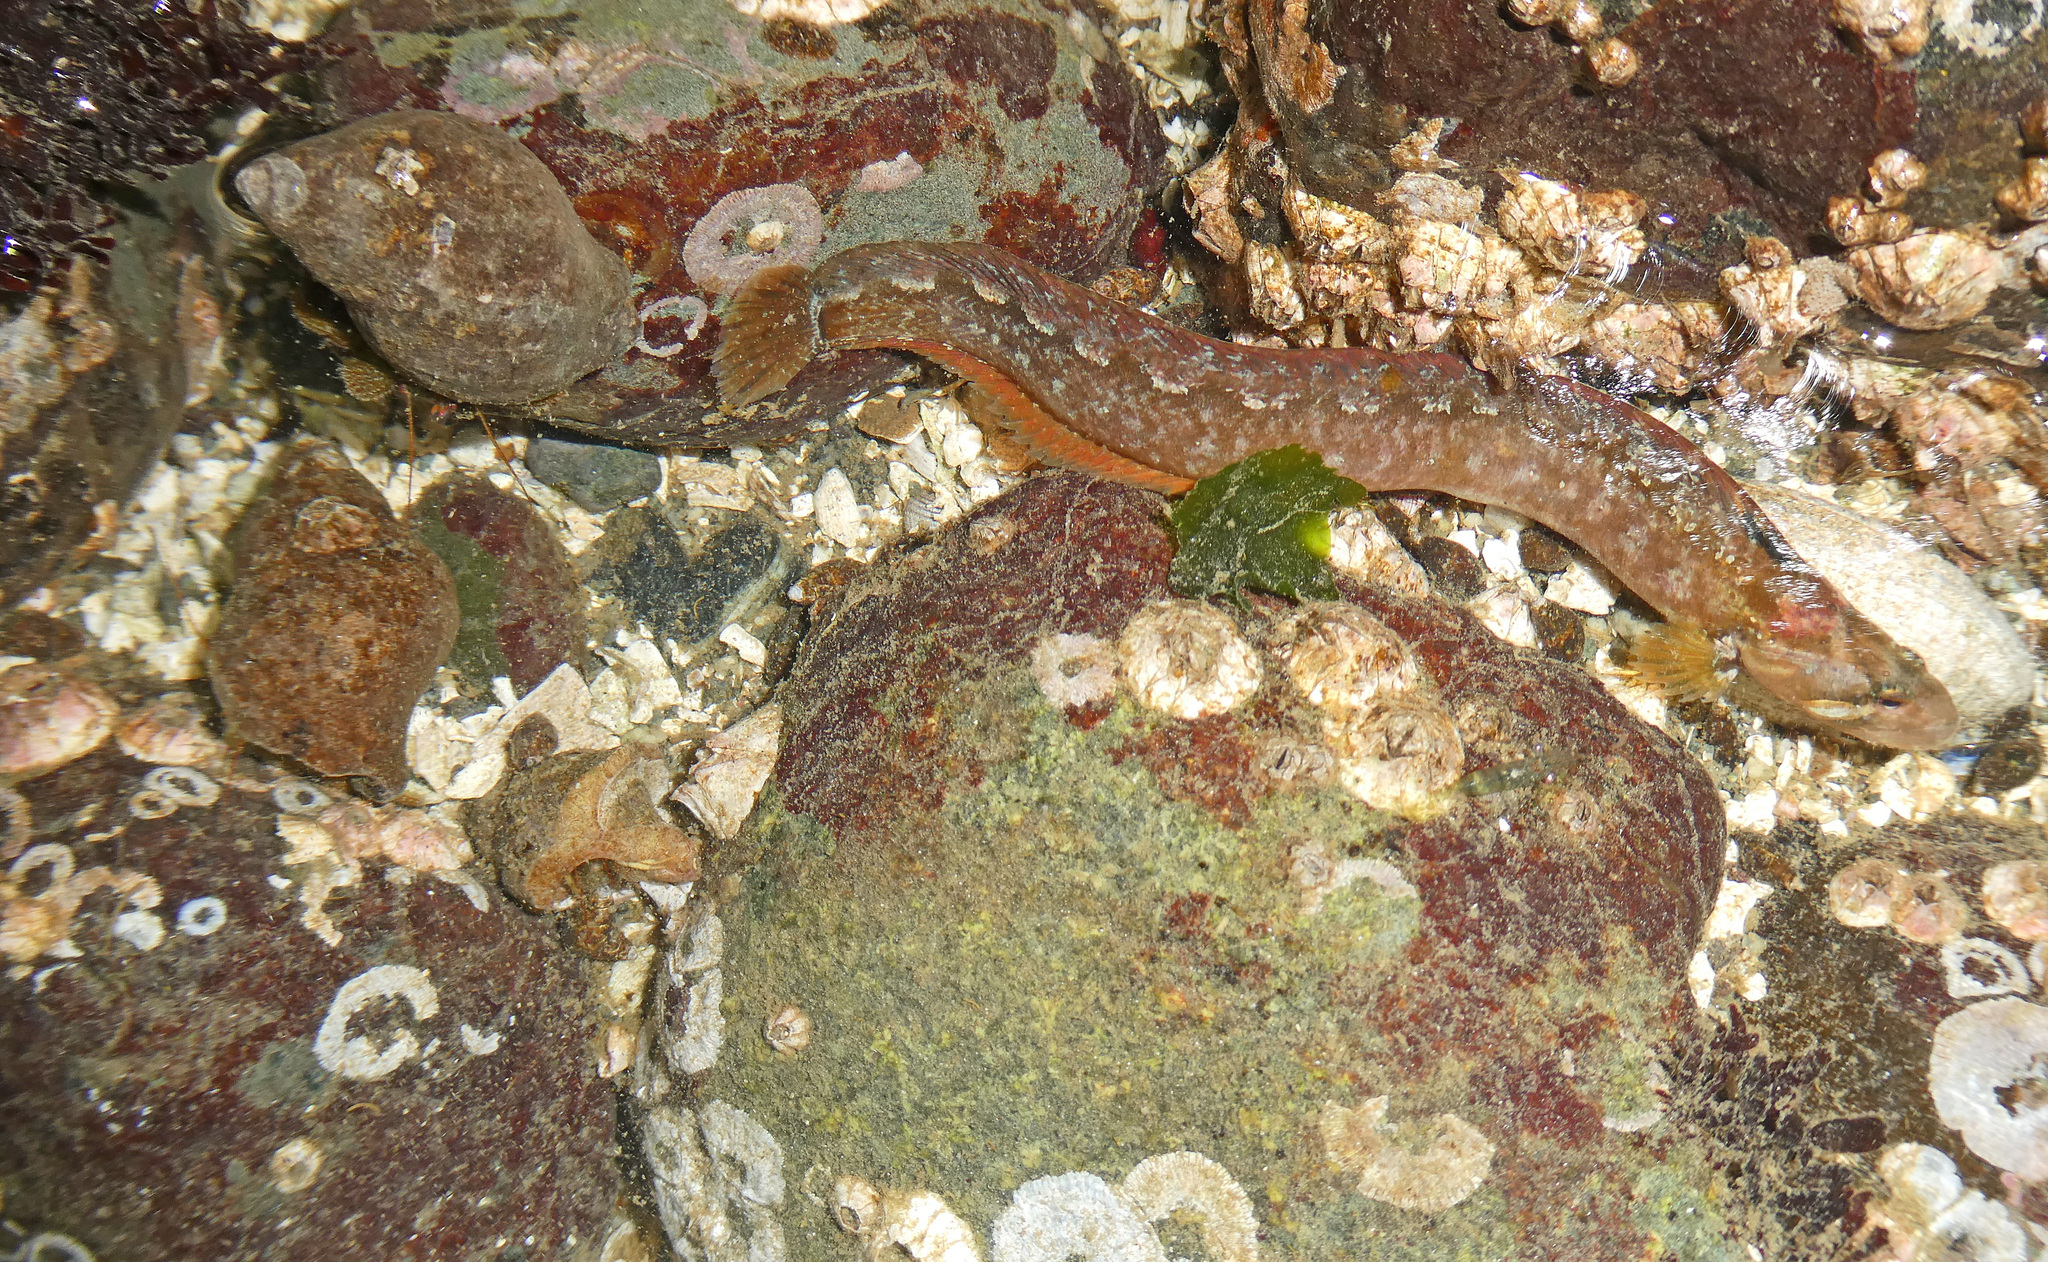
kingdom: Animalia
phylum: Chordata
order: Perciformes
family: Stichaeidae
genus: Anoplarchus
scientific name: Anoplarchus purpurescens
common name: High cockscomb
